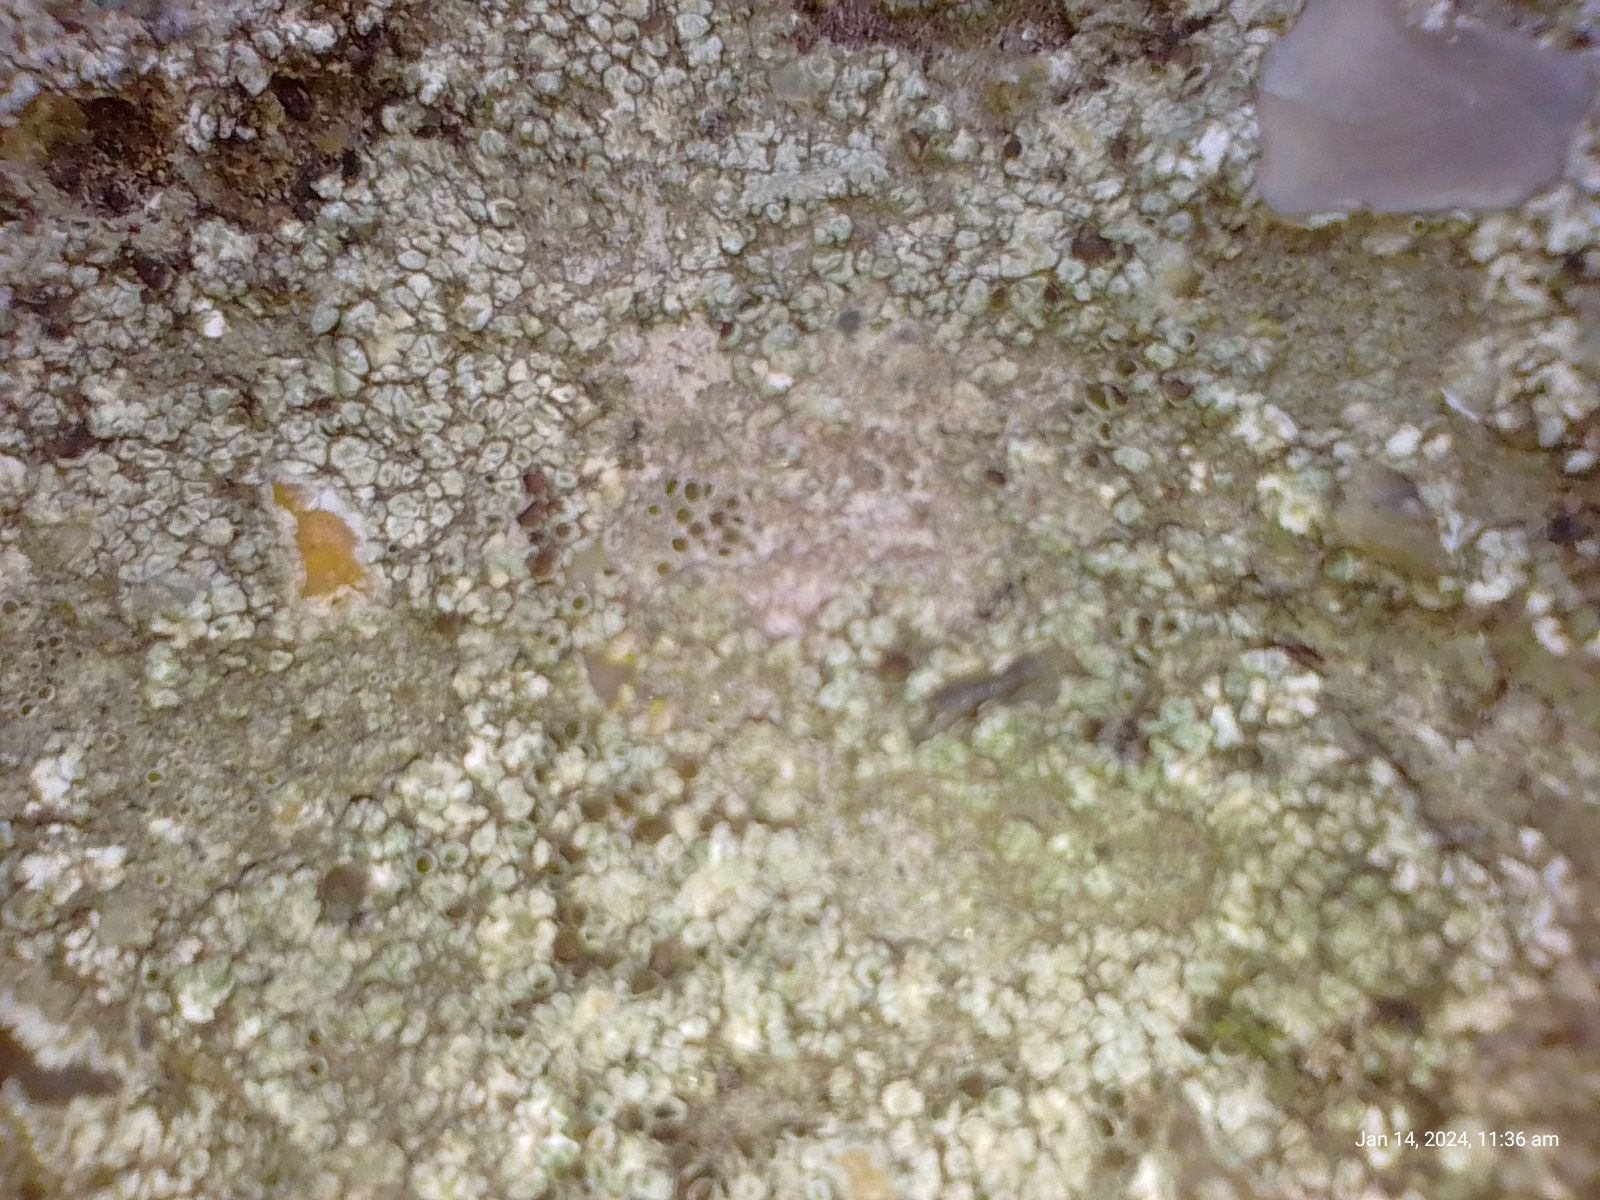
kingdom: Fungi
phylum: Ascomycota
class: Lecanoromycetes
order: Lecanorales
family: Lecanoraceae
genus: Lecanora
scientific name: Lecanora campestris
